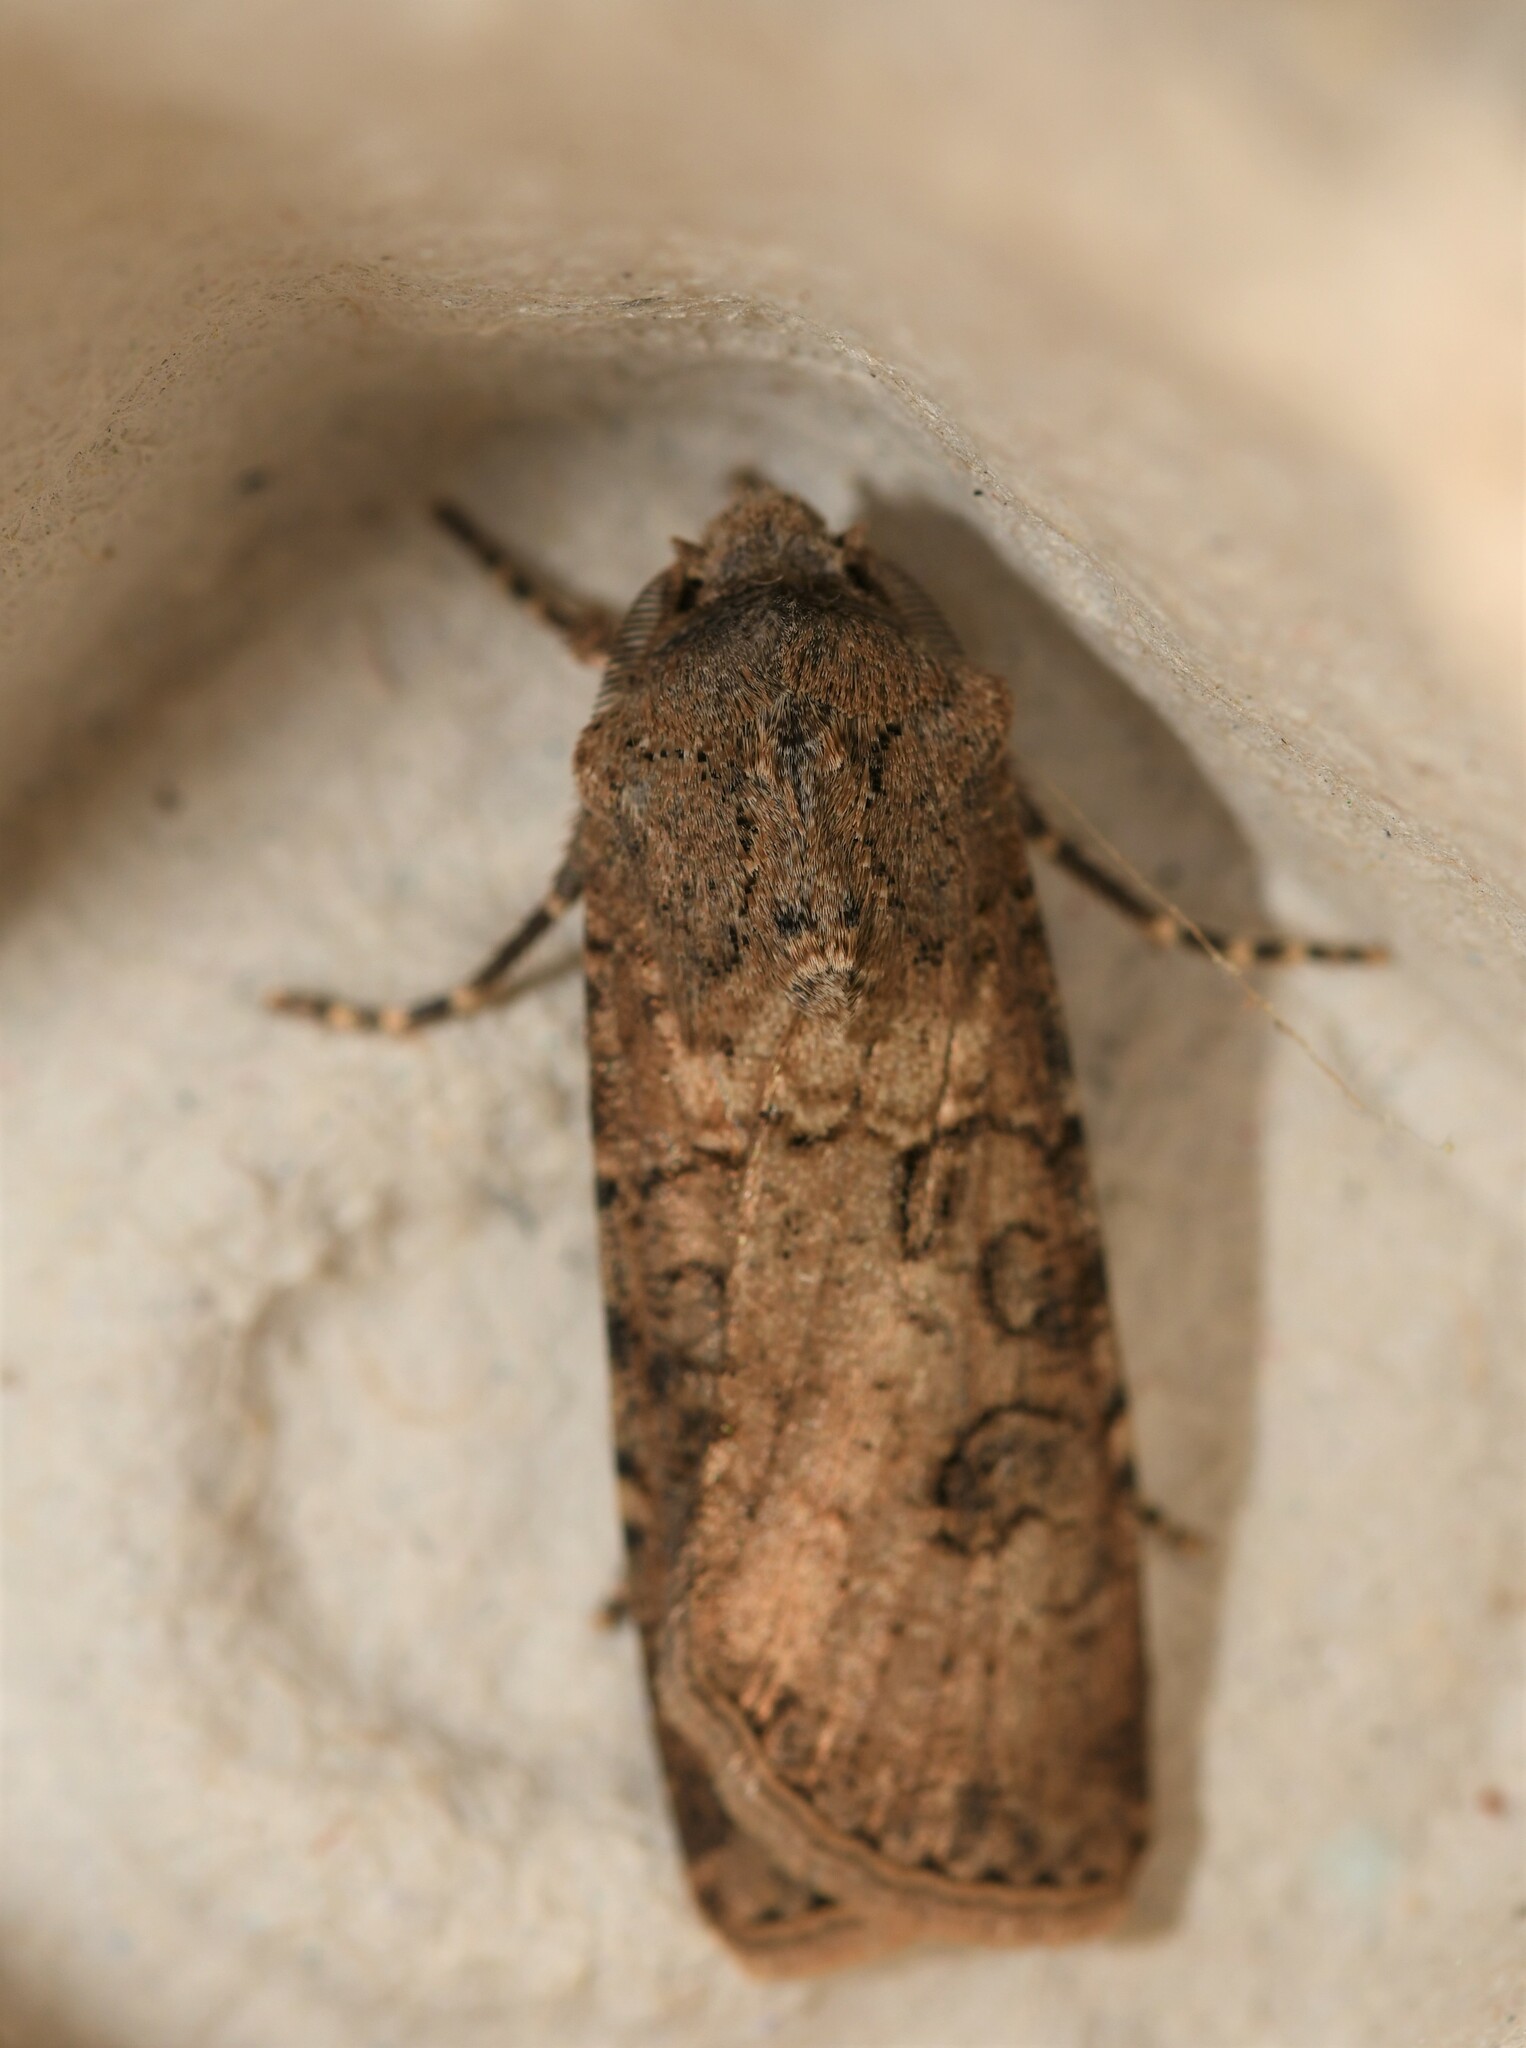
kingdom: Animalia
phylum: Arthropoda
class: Insecta
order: Lepidoptera
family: Noctuidae
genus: Agrotis
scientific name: Agrotis segetum
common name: Turnip moth
